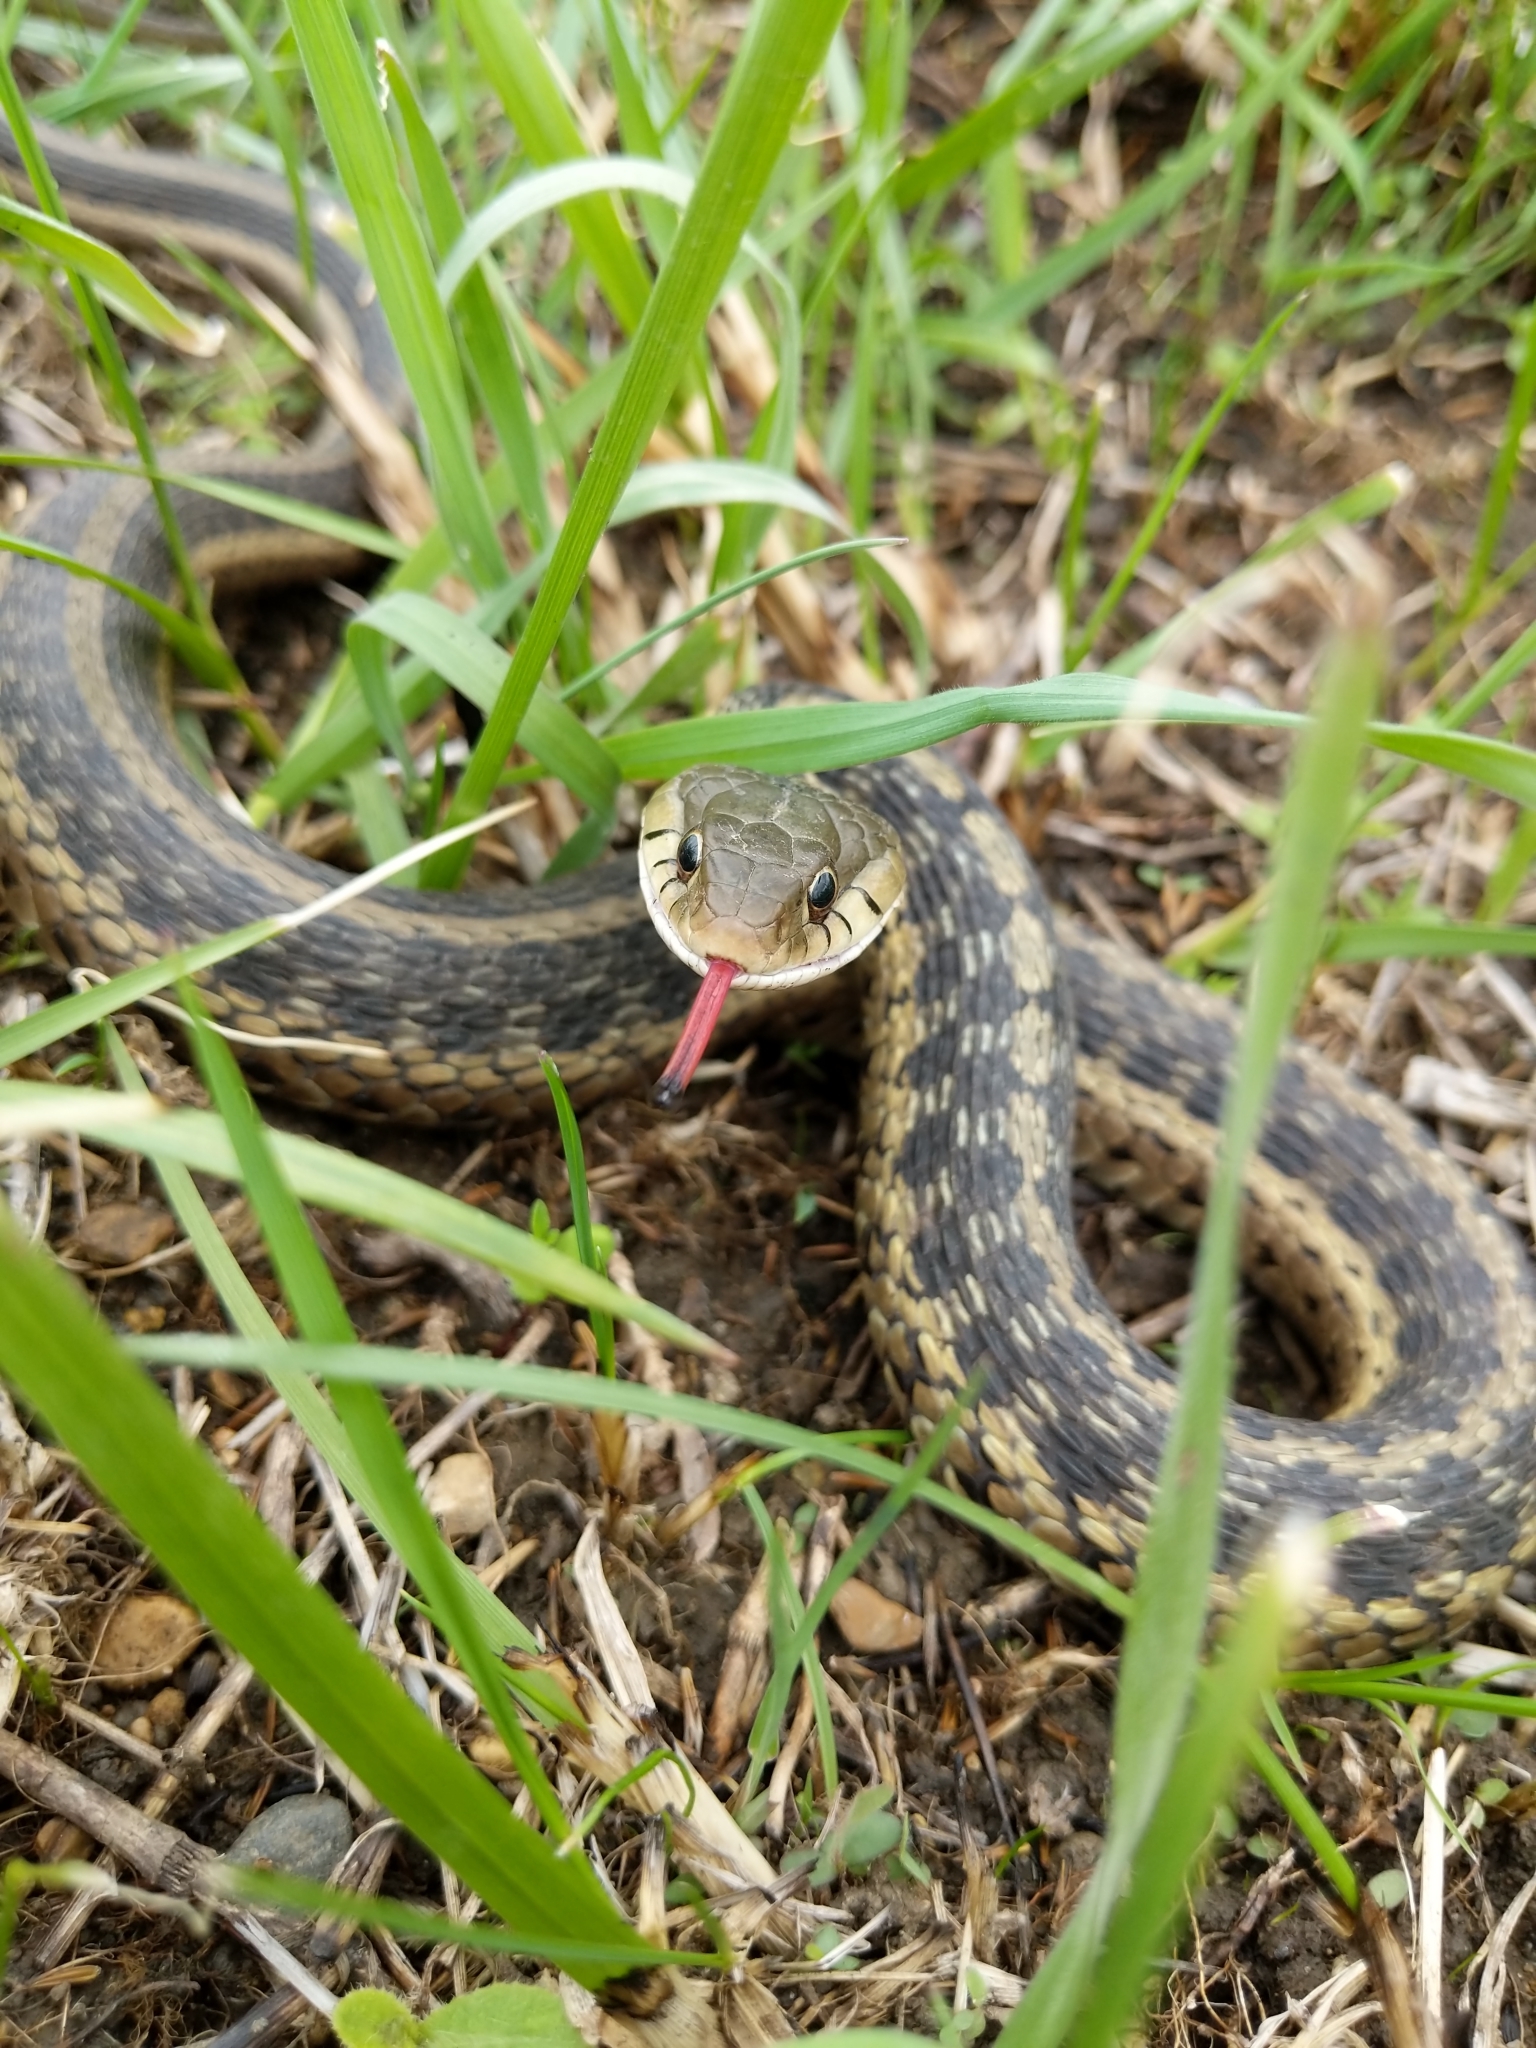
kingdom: Animalia
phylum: Chordata
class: Squamata
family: Colubridae
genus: Thamnophis
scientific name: Thamnophis sirtalis
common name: Common garter snake
